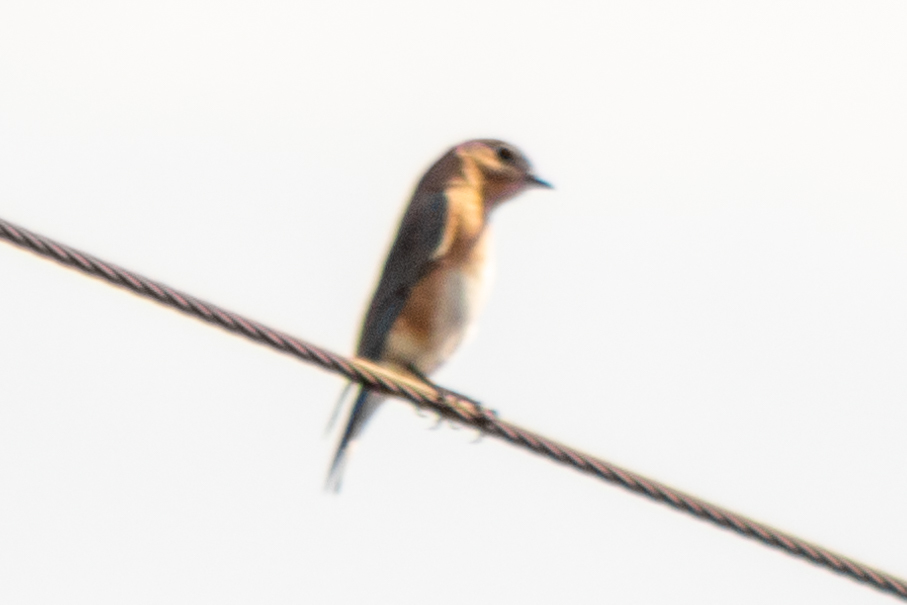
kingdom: Animalia
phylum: Chordata
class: Aves
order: Passeriformes
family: Turdidae
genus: Sialia
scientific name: Sialia sialis
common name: Eastern bluebird
